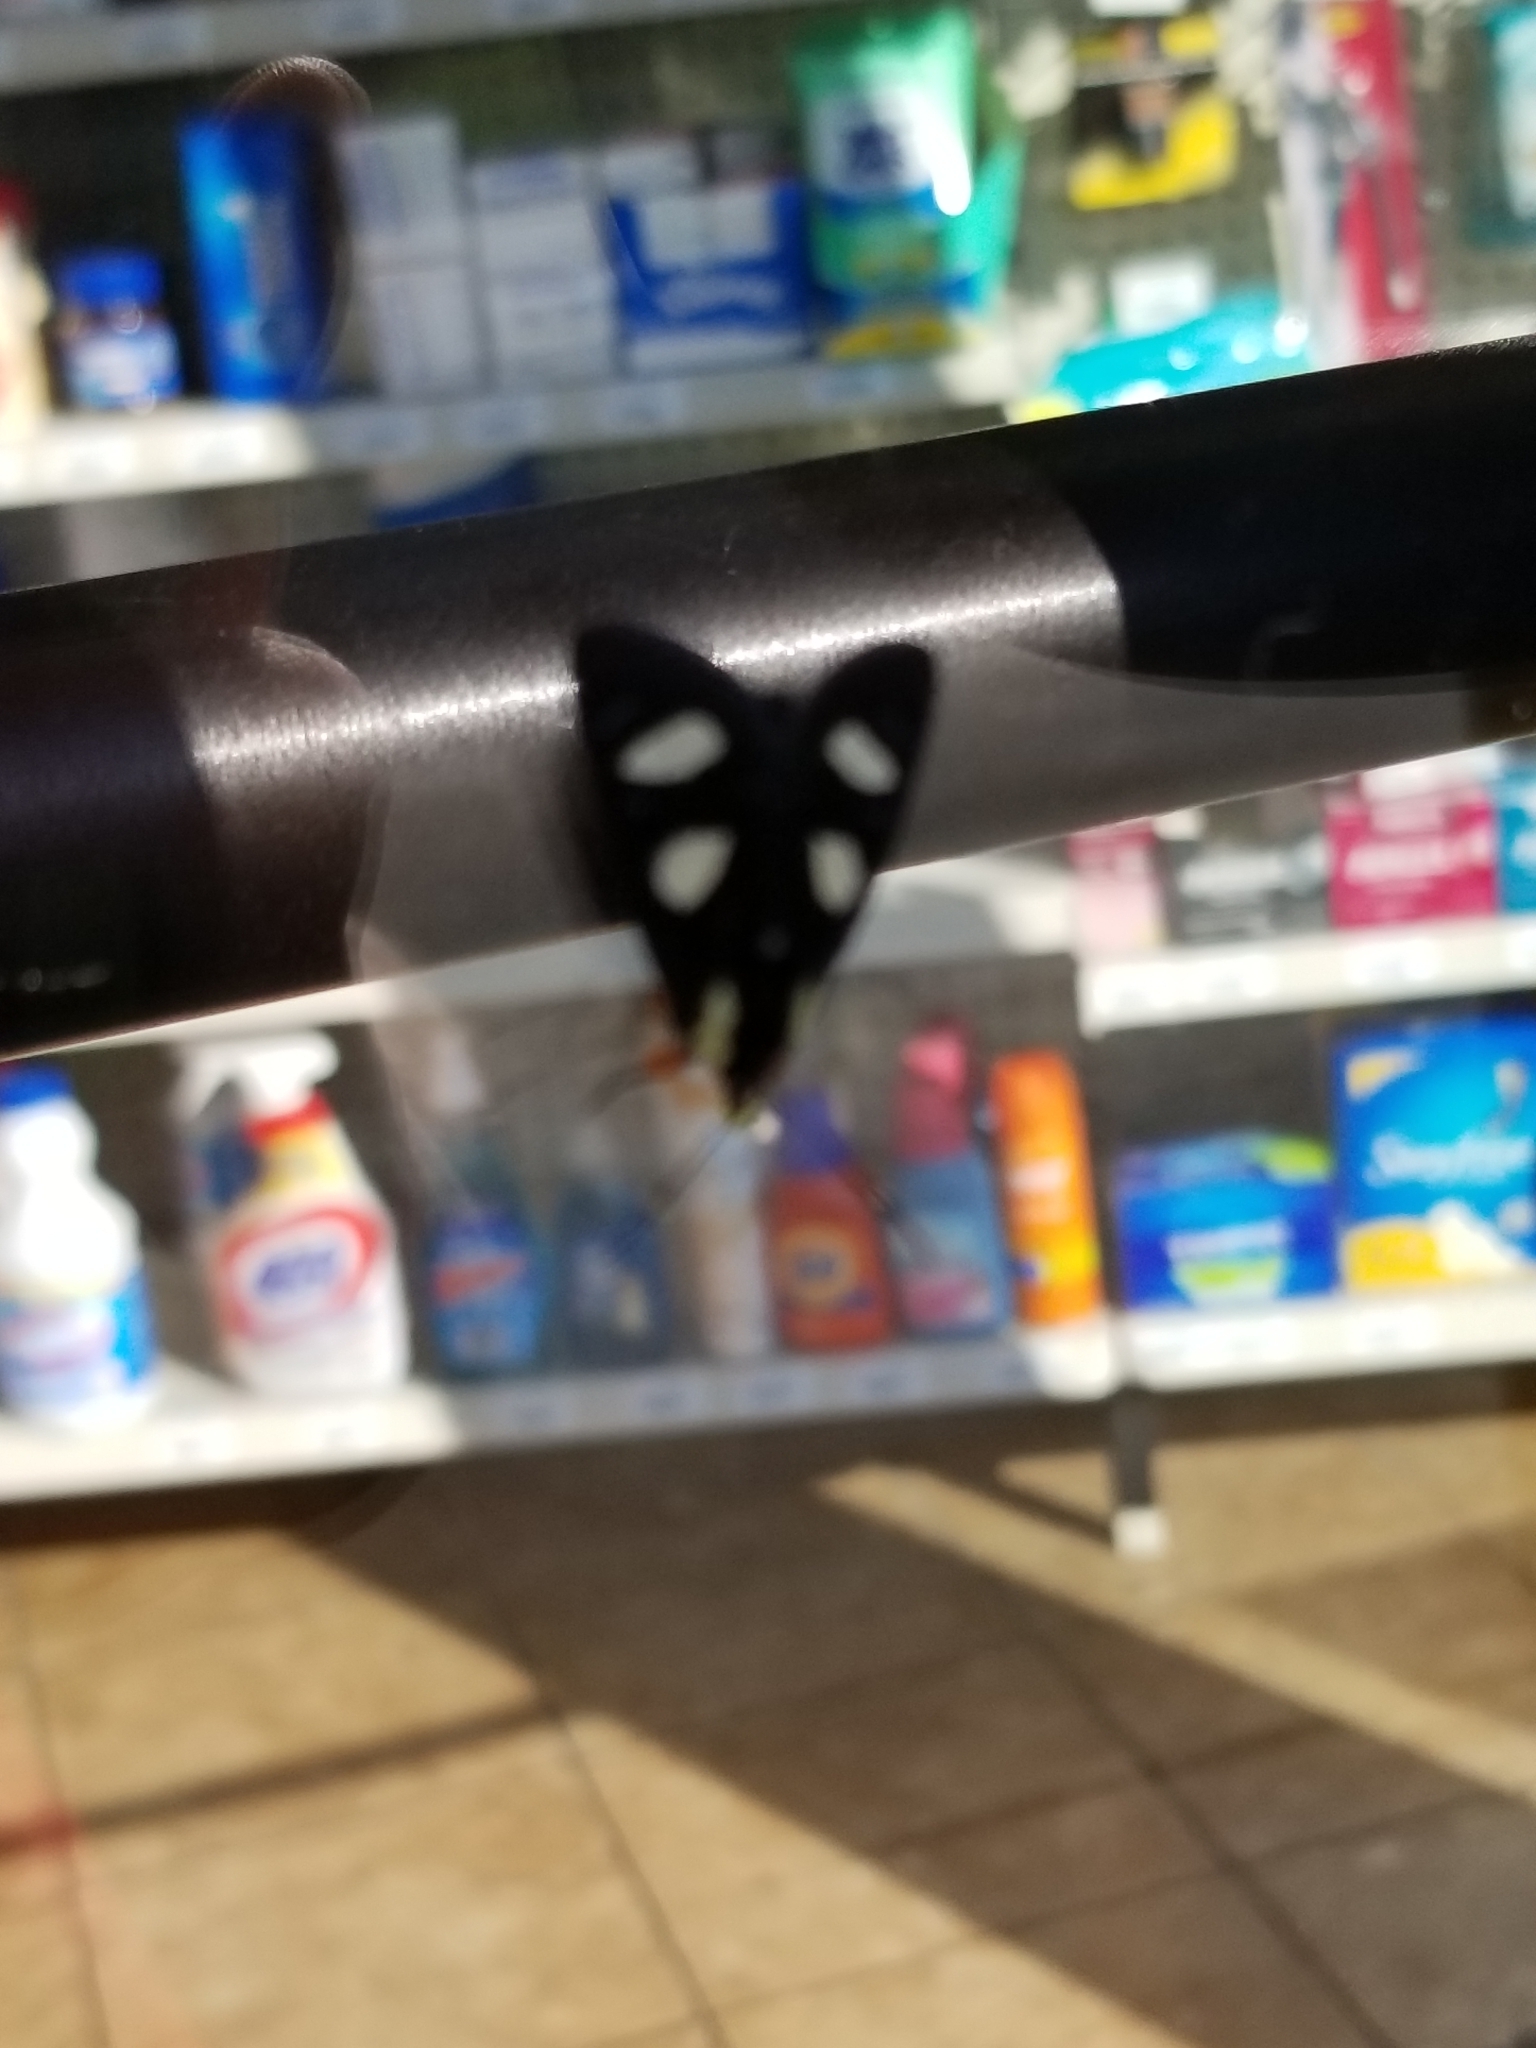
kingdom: Animalia
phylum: Arthropoda
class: Insecta
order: Lepidoptera
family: Noctuidae
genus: Alypia
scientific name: Alypia octomaculata
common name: Eight-spotted forester
